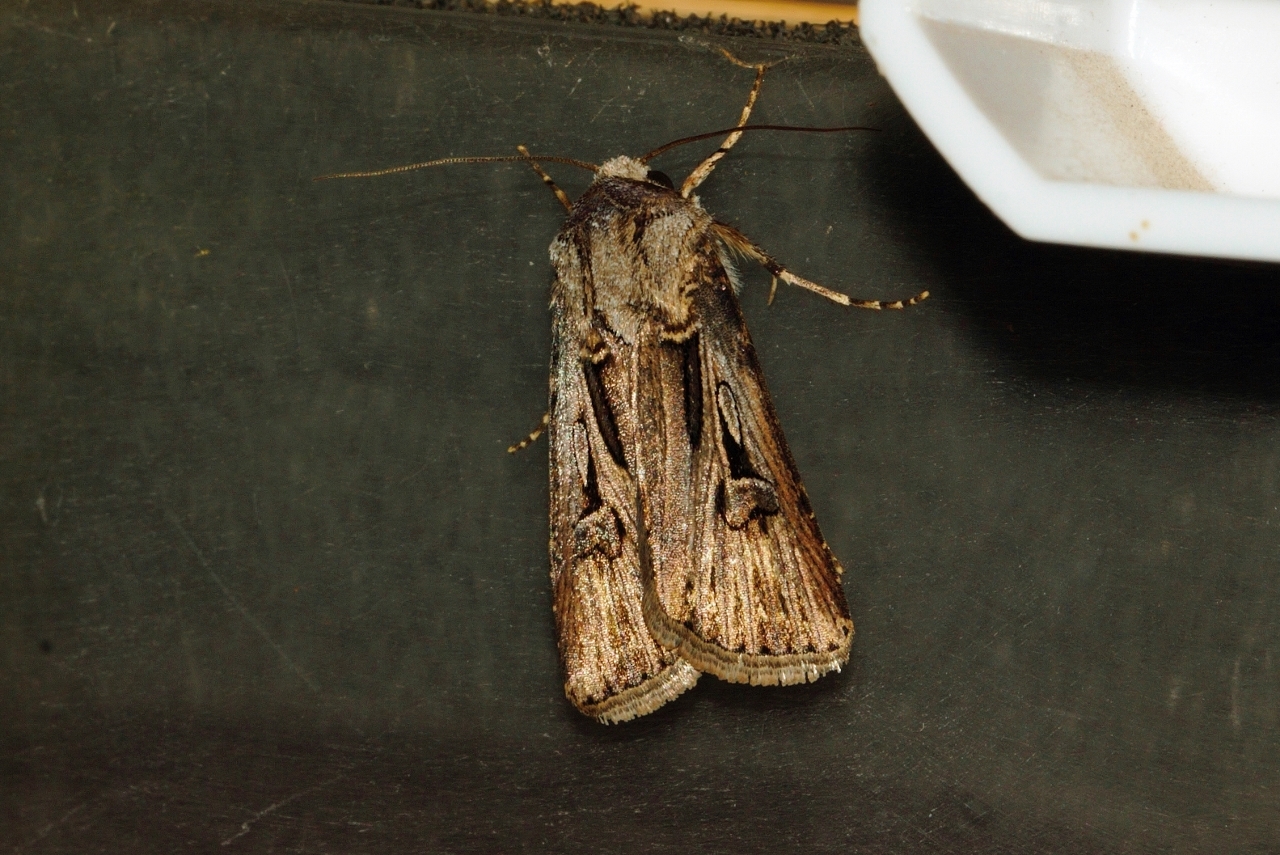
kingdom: Animalia
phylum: Arthropoda
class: Insecta
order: Lepidoptera
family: Noctuidae
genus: Agrotis
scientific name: Agrotis
